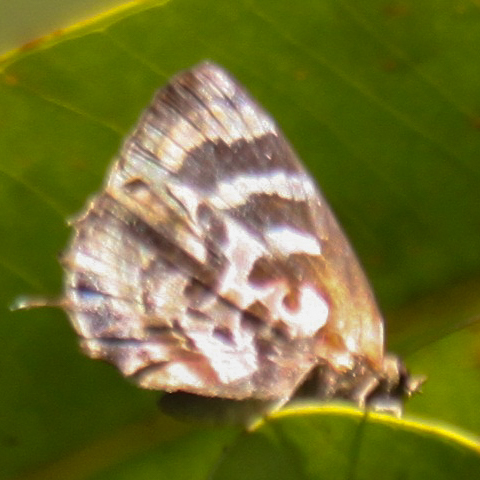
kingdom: Animalia
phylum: Arthropoda
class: Insecta
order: Lepidoptera
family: Lycaenidae
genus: Flos
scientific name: Flos
